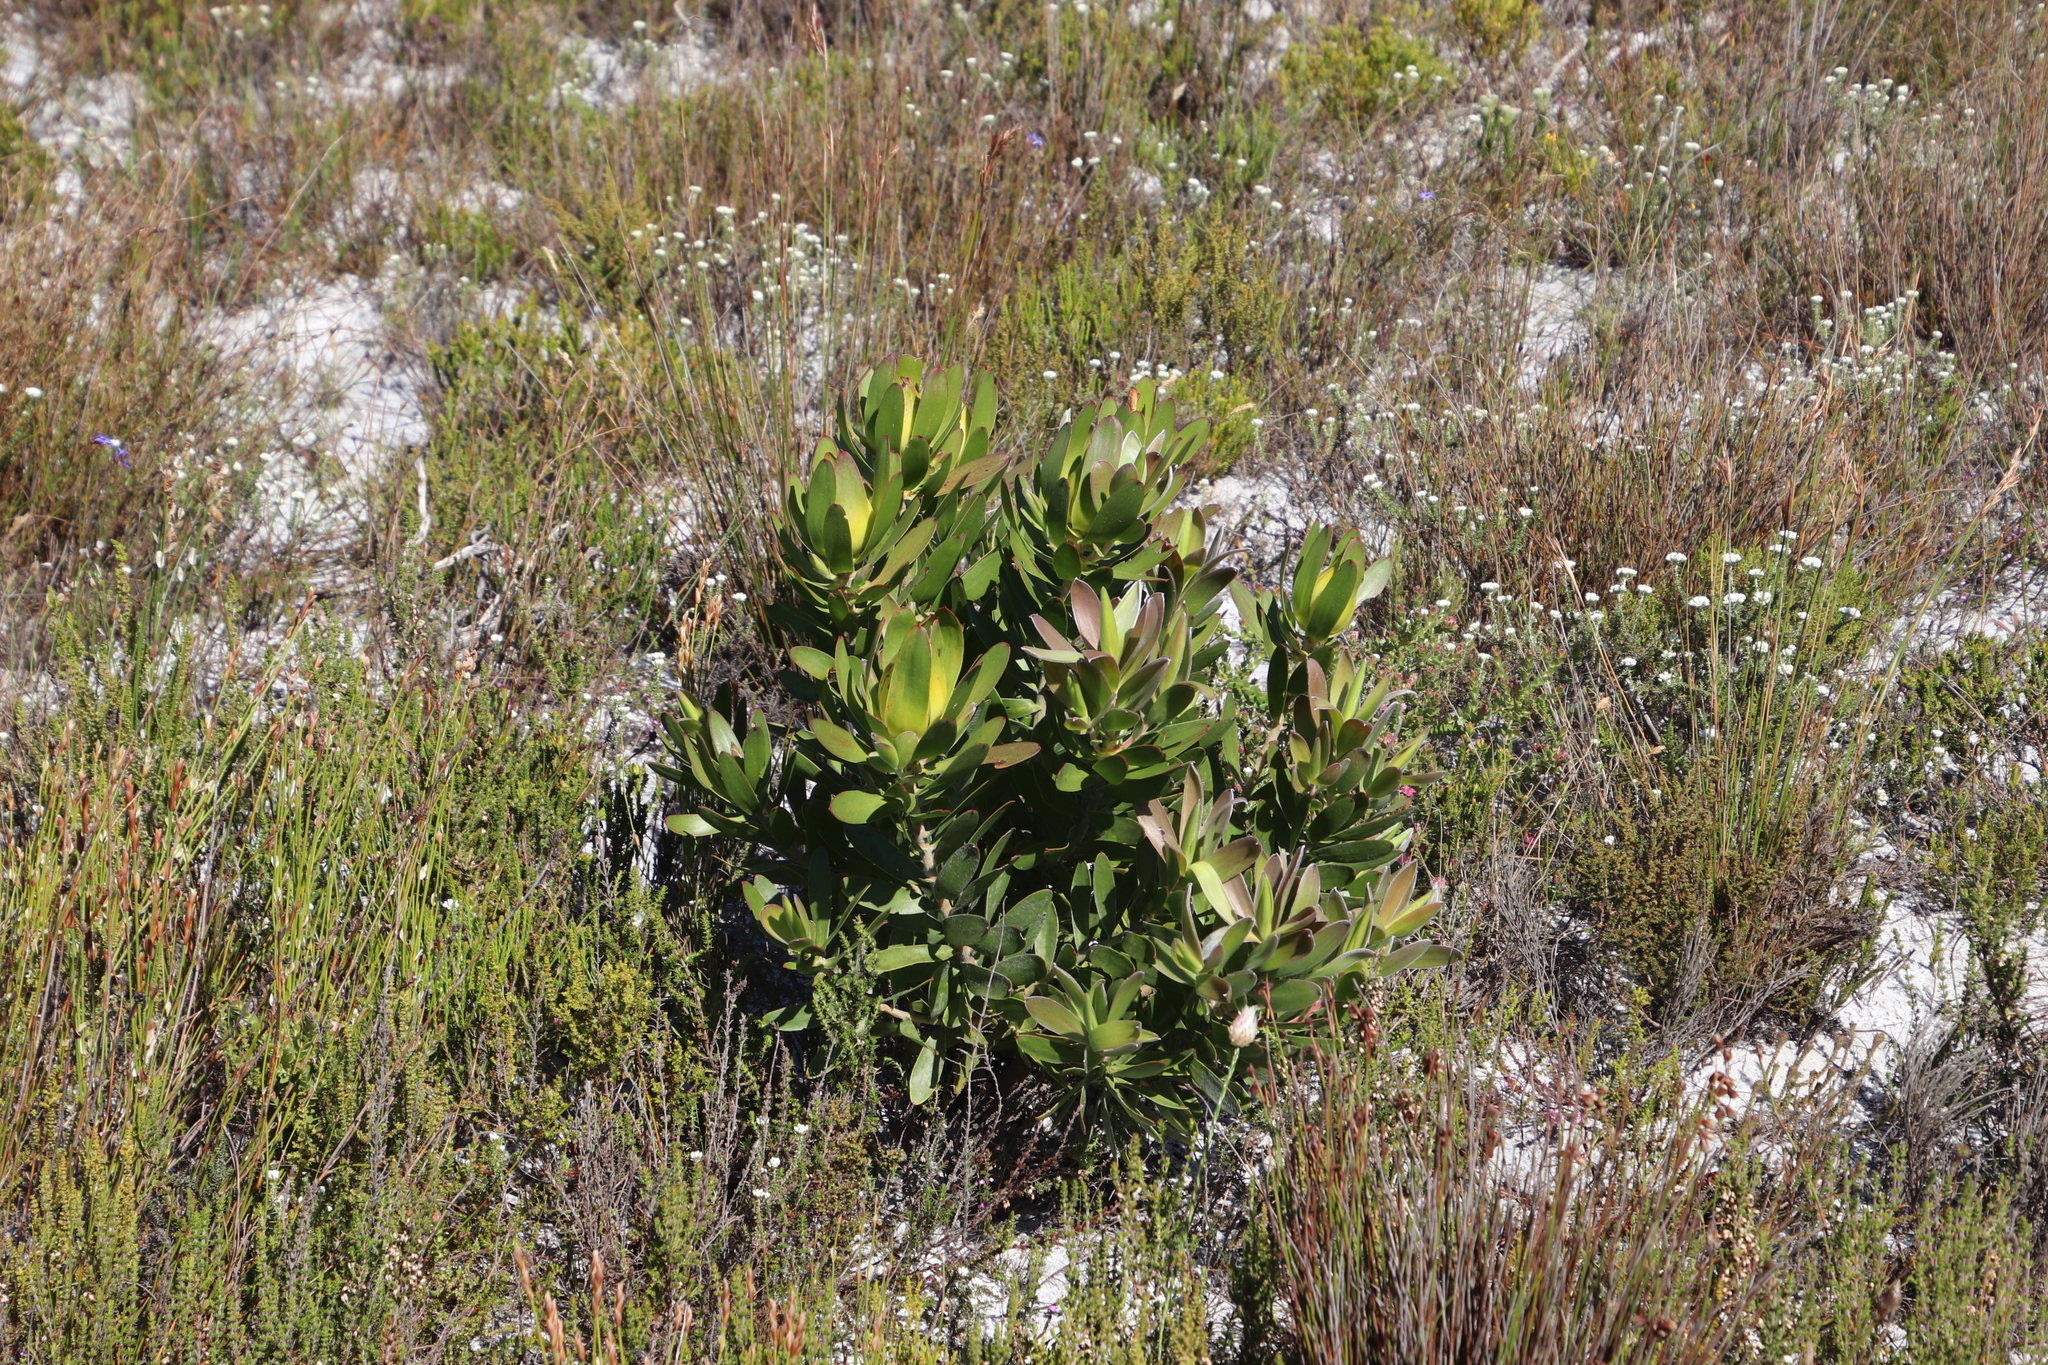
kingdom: Plantae
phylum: Tracheophyta
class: Magnoliopsida
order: Proteales
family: Proteaceae
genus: Leucadendron
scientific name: Leucadendron laureolum
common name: Golden sunshinebush
